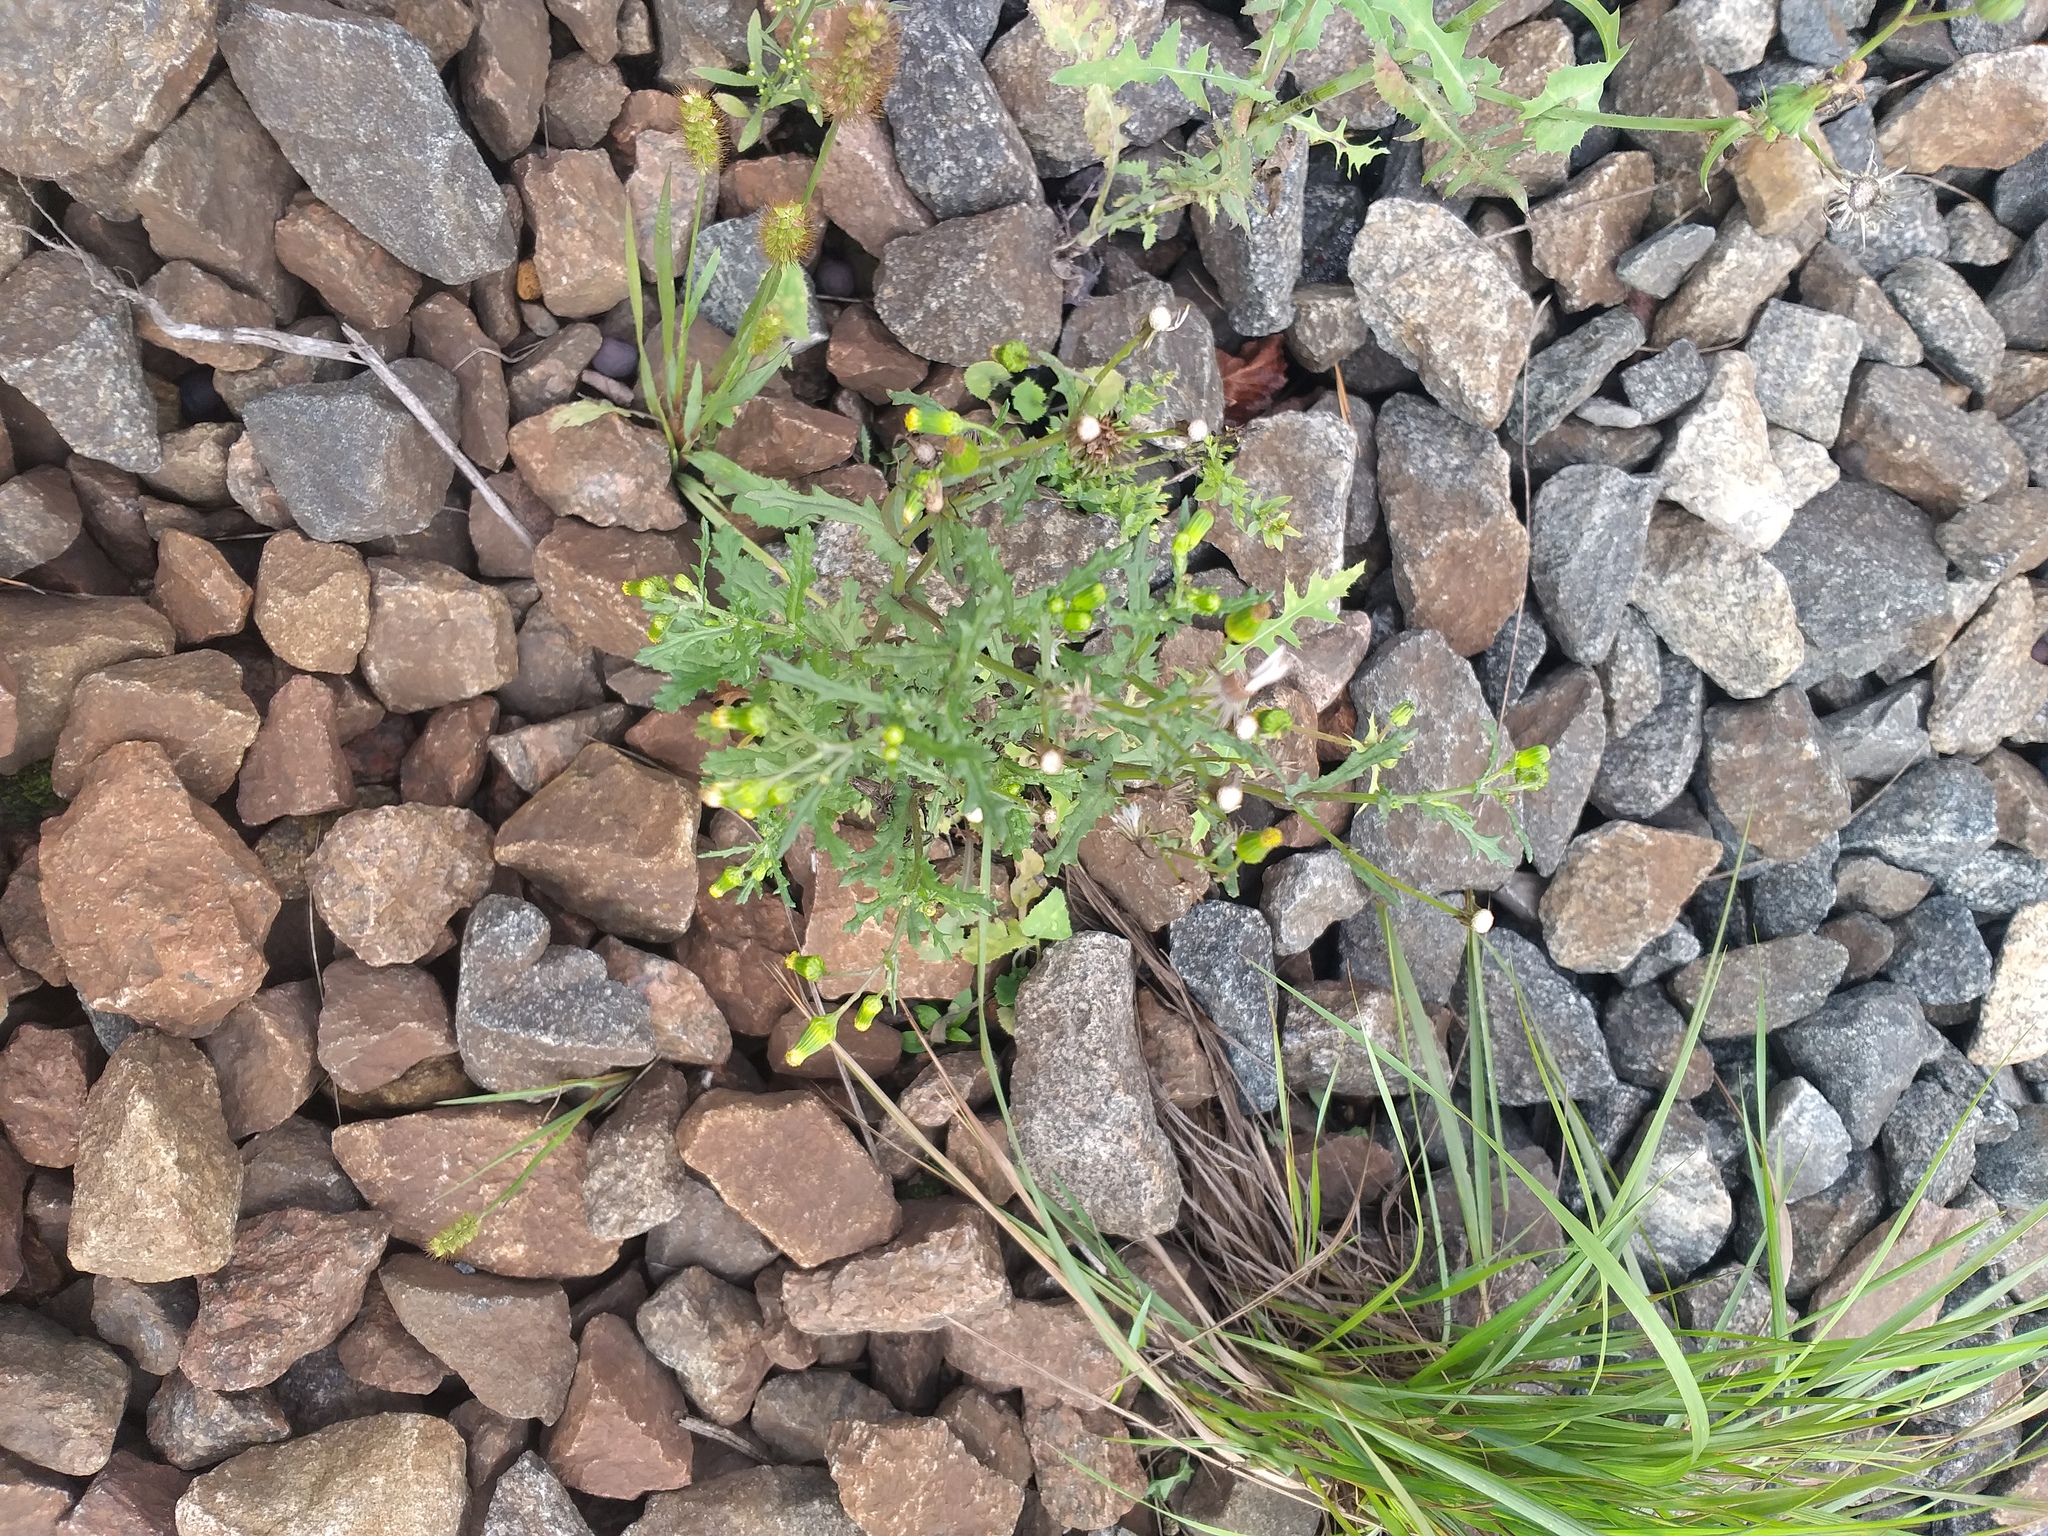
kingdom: Plantae
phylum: Tracheophyta
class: Magnoliopsida
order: Asterales
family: Asteraceae
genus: Senecio
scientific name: Senecio vulgaris
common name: Old-man-in-the-spring
